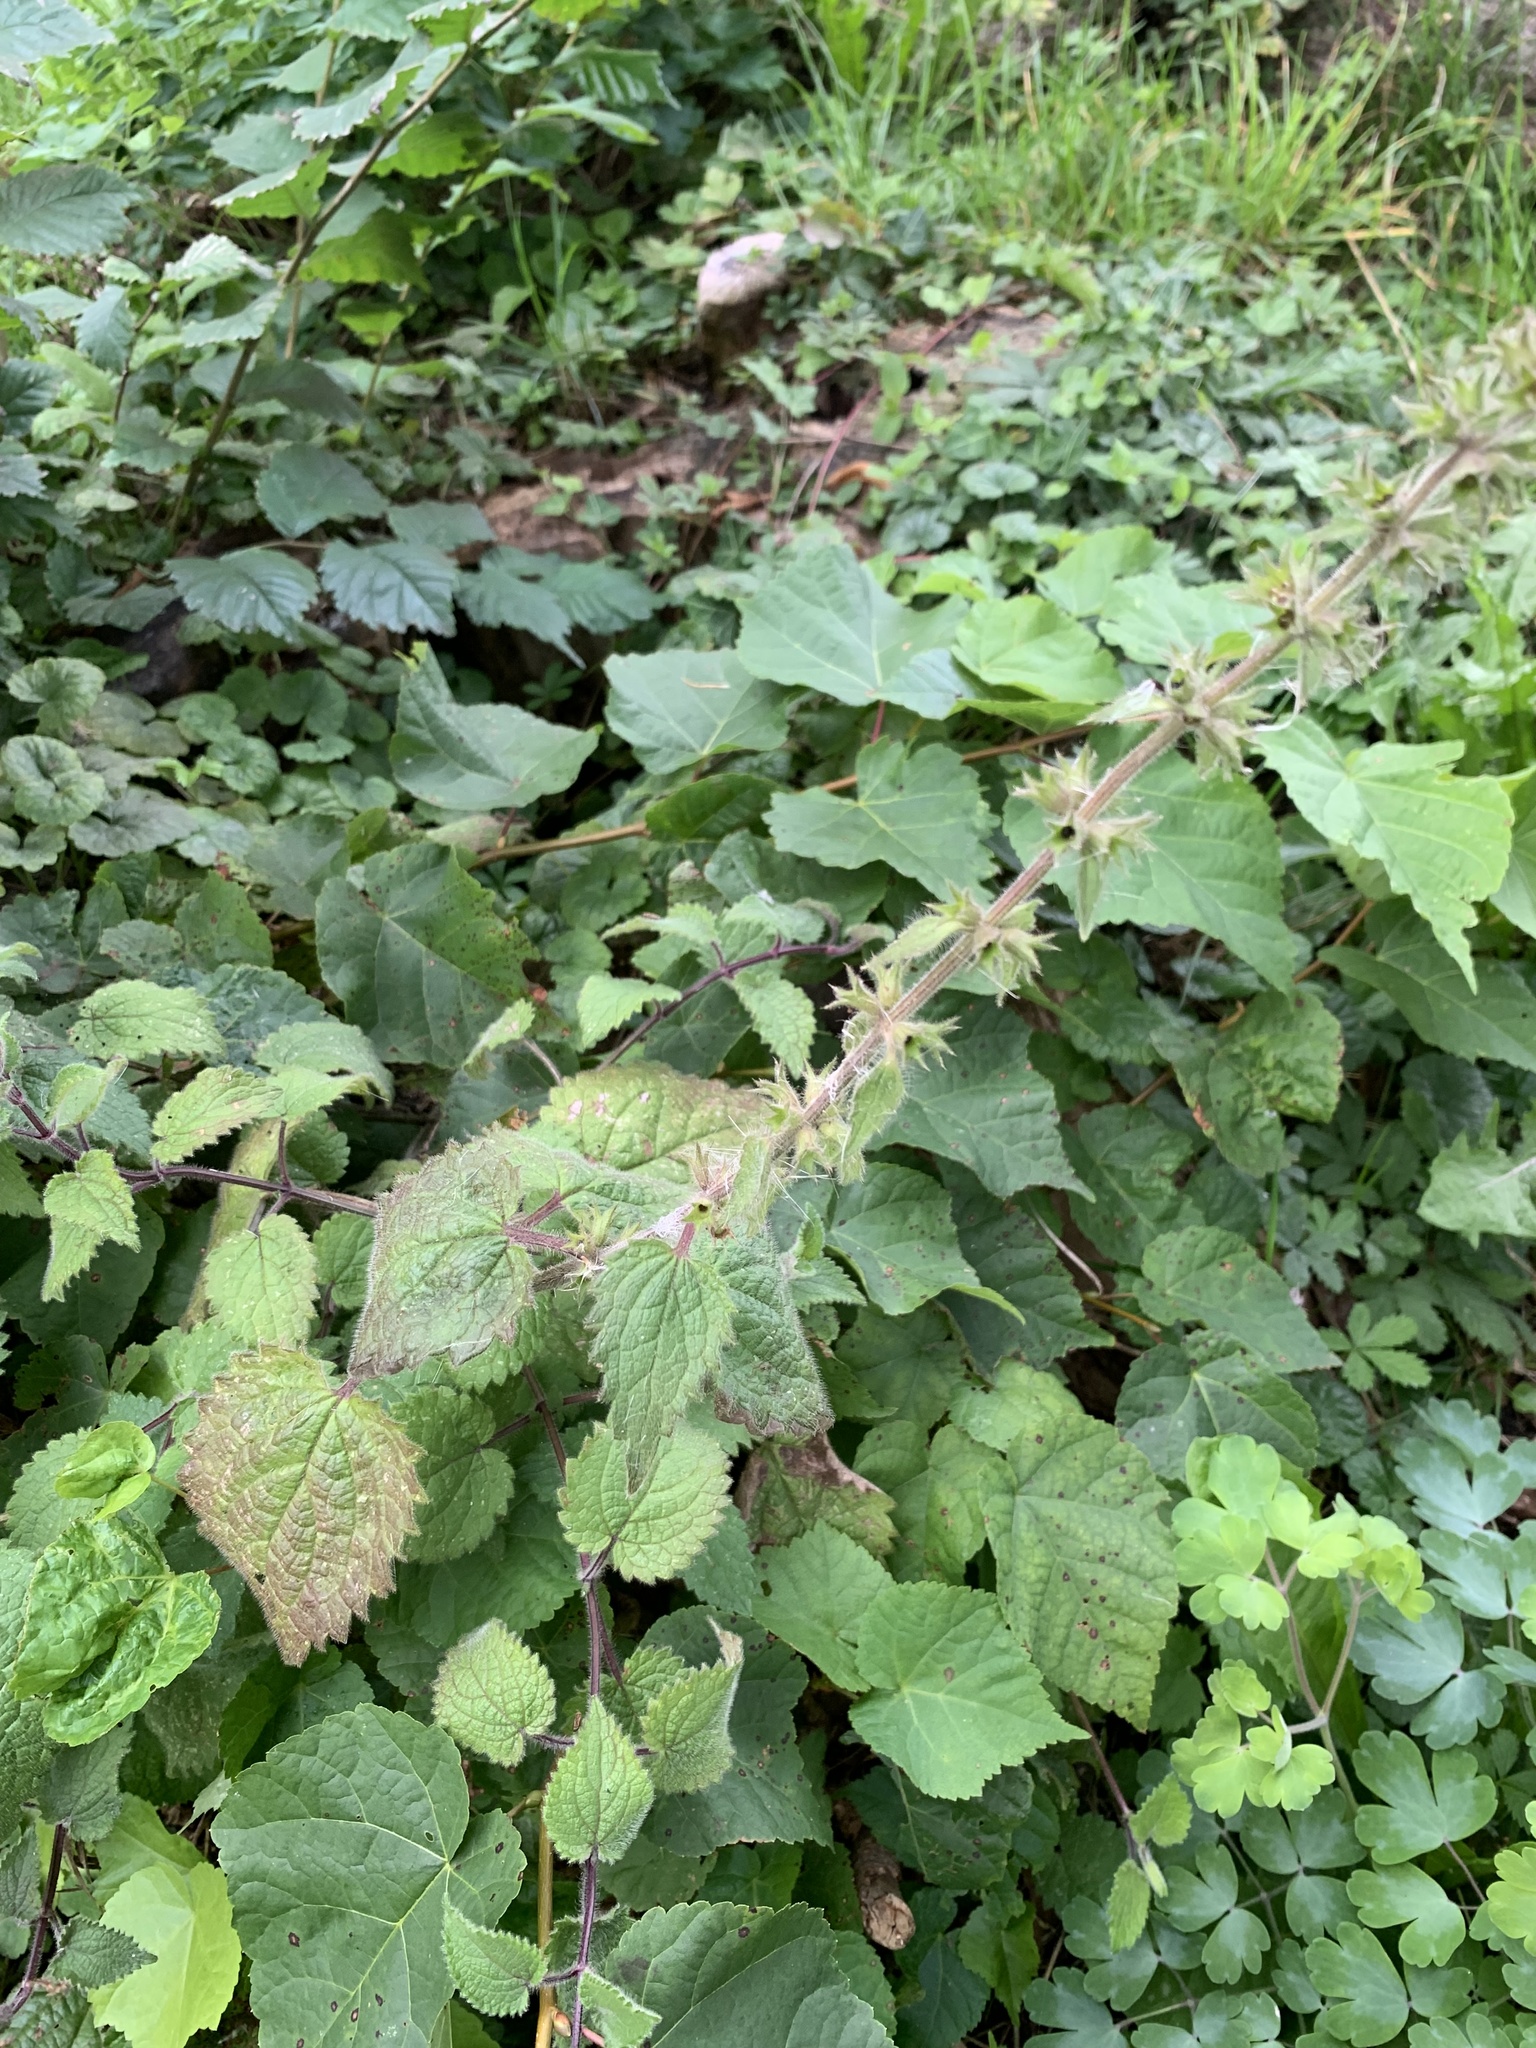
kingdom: Plantae
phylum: Tracheophyta
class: Magnoliopsida
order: Lamiales
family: Lamiaceae
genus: Stachys
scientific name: Stachys sylvatica
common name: Hedge woundwort
